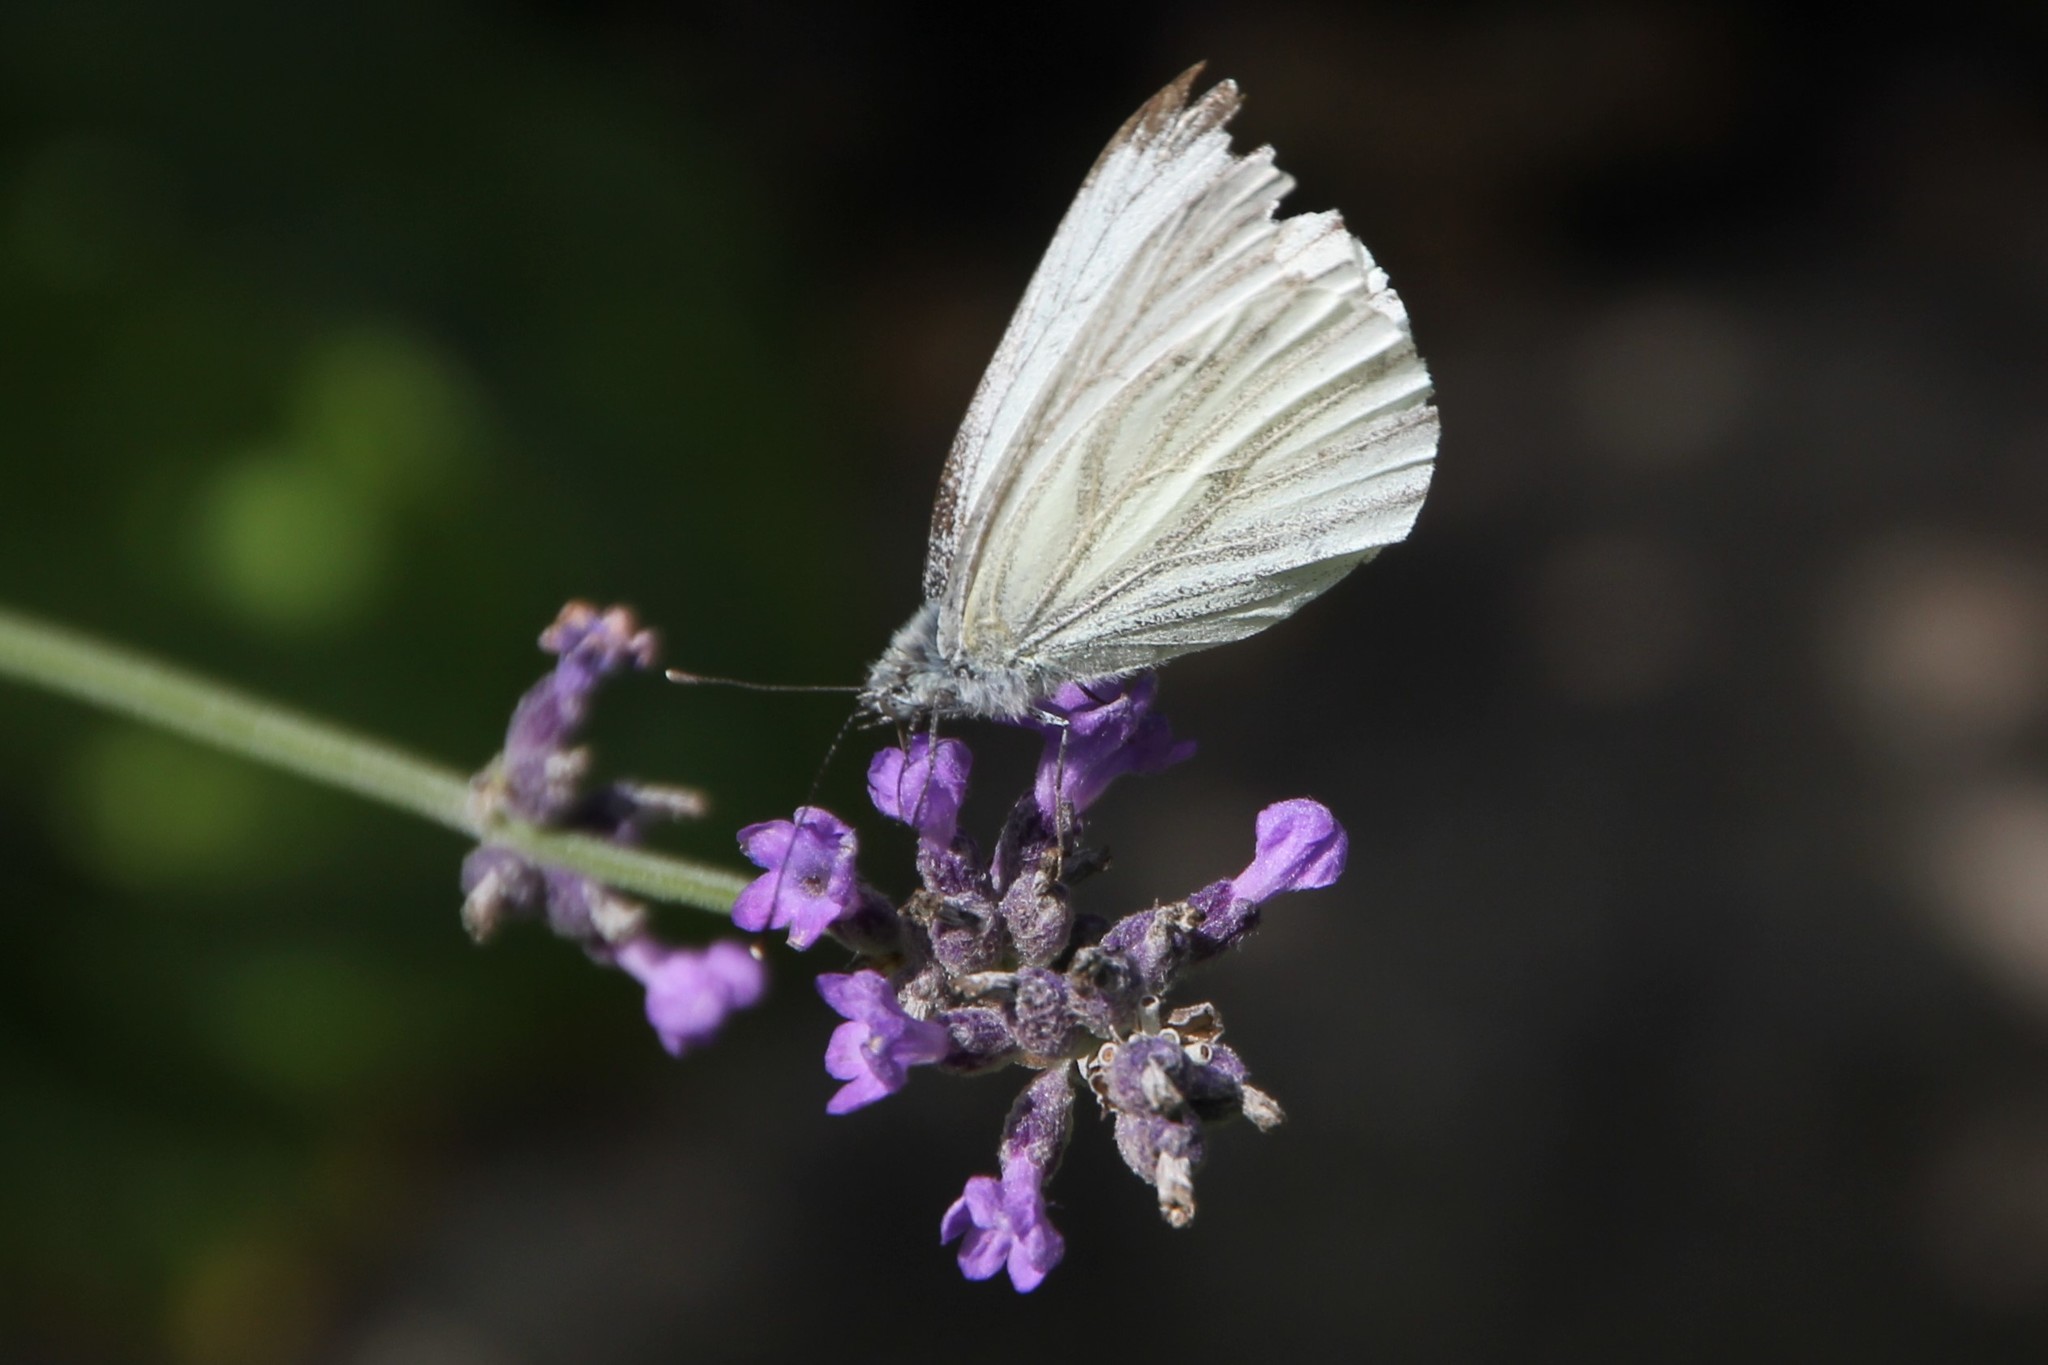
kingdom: Animalia
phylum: Arthropoda
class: Insecta
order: Lepidoptera
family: Pieridae
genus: Pieris
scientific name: Pieris napi
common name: Green-veined white
